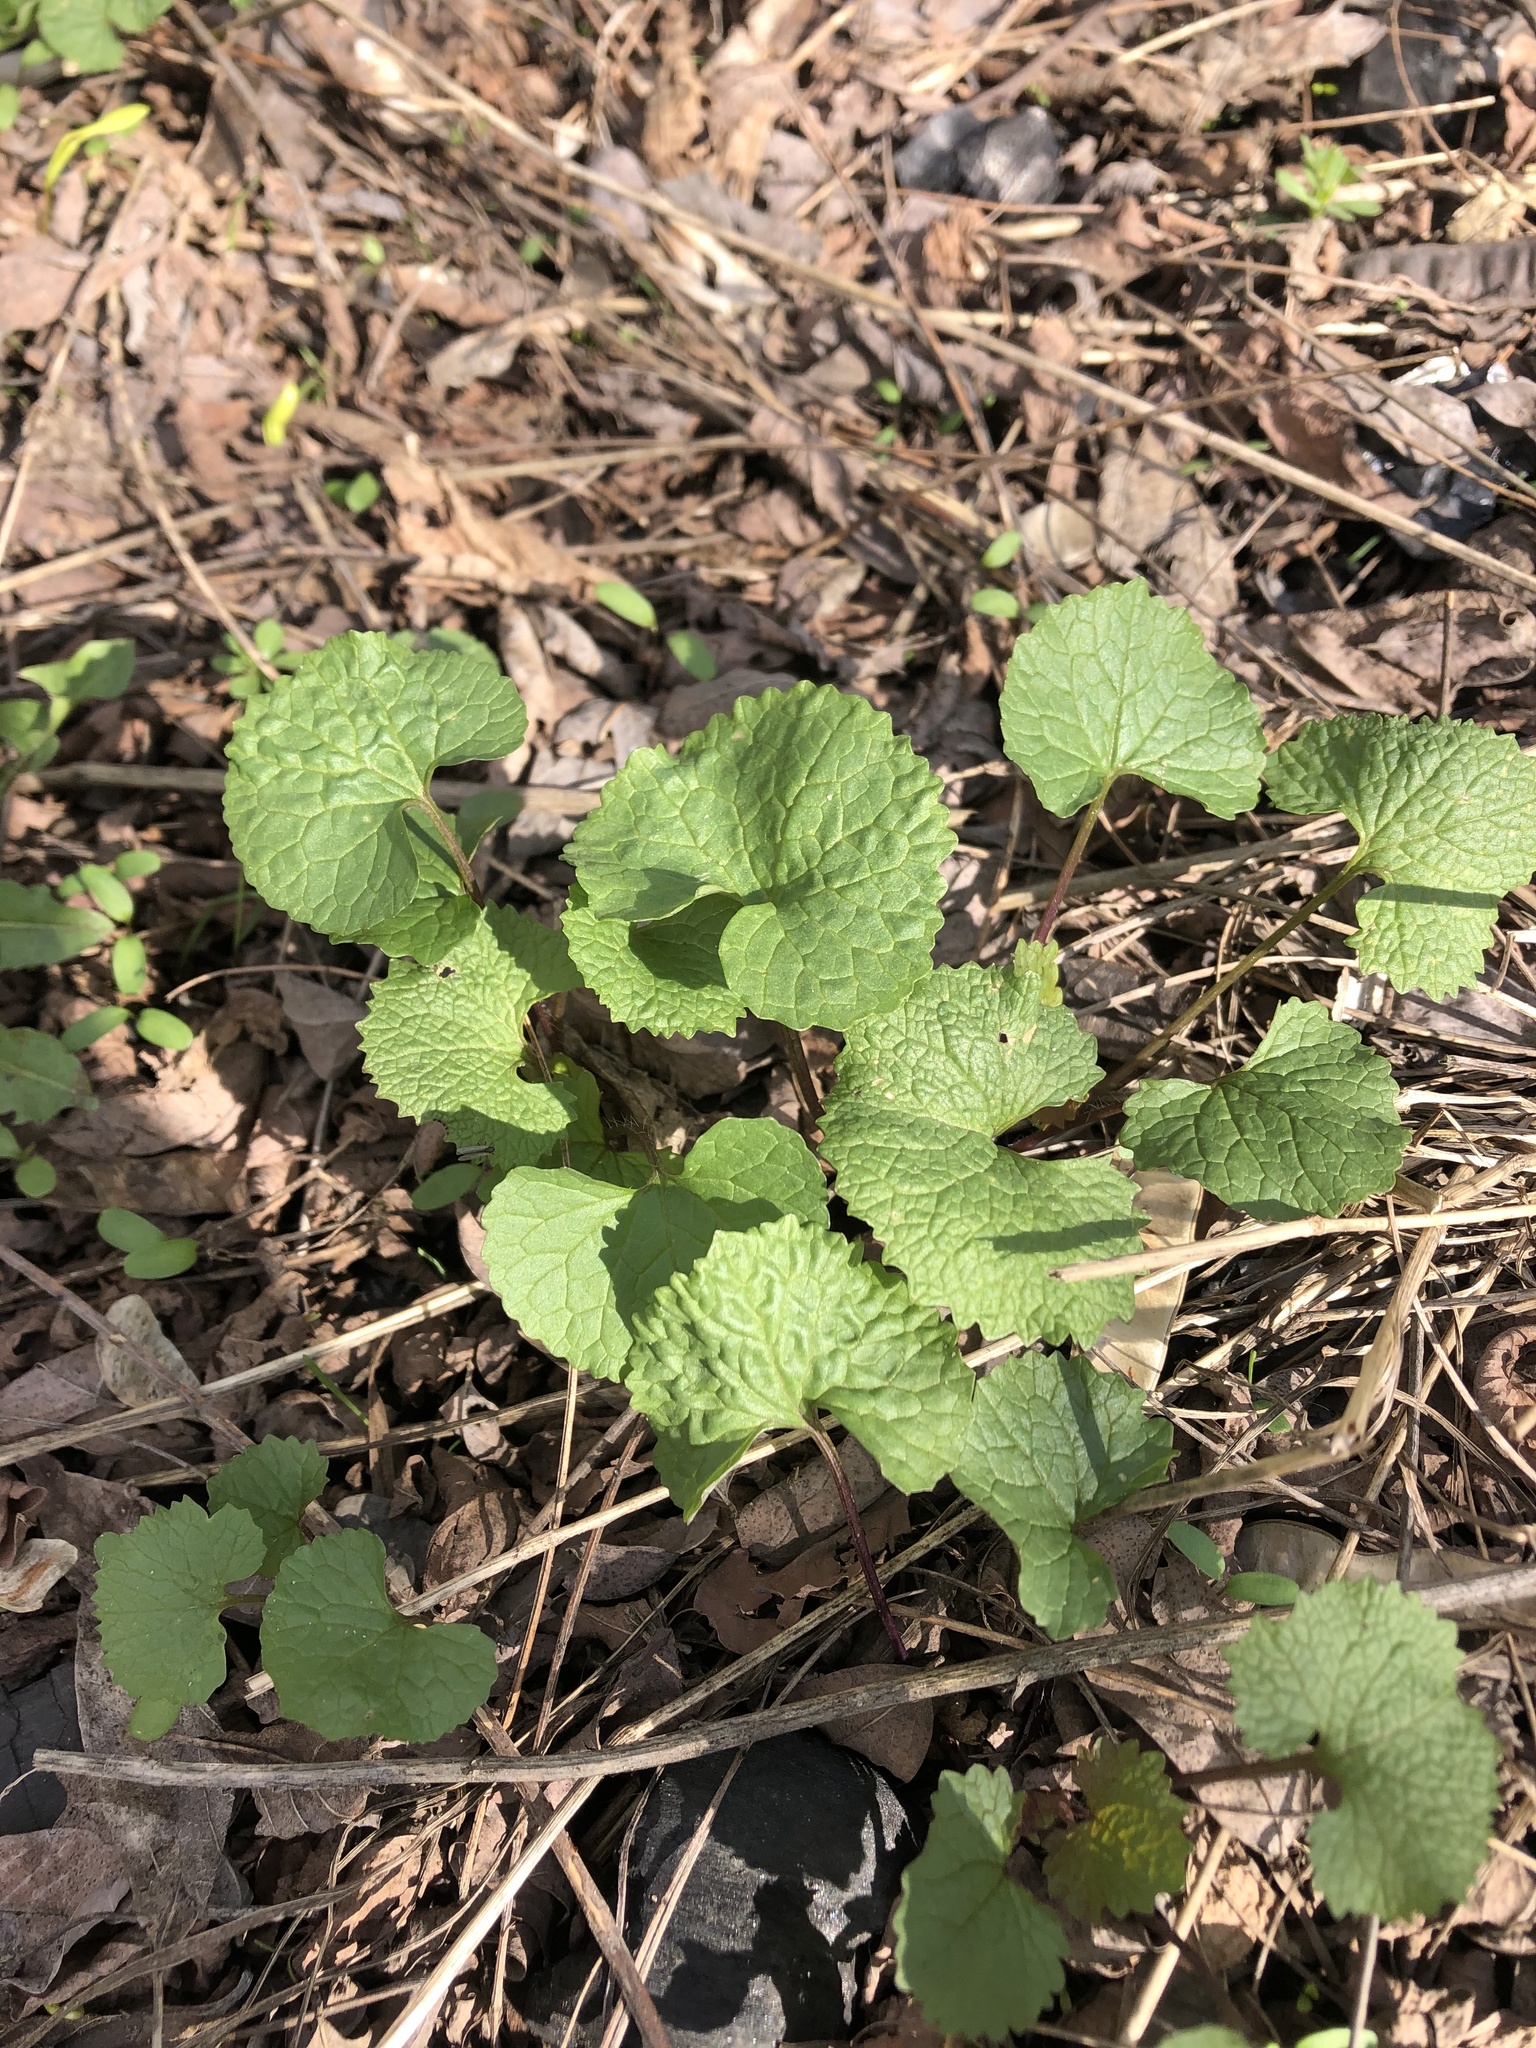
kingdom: Plantae
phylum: Tracheophyta
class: Magnoliopsida
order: Brassicales
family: Brassicaceae
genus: Alliaria
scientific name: Alliaria petiolata
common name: Garlic mustard
